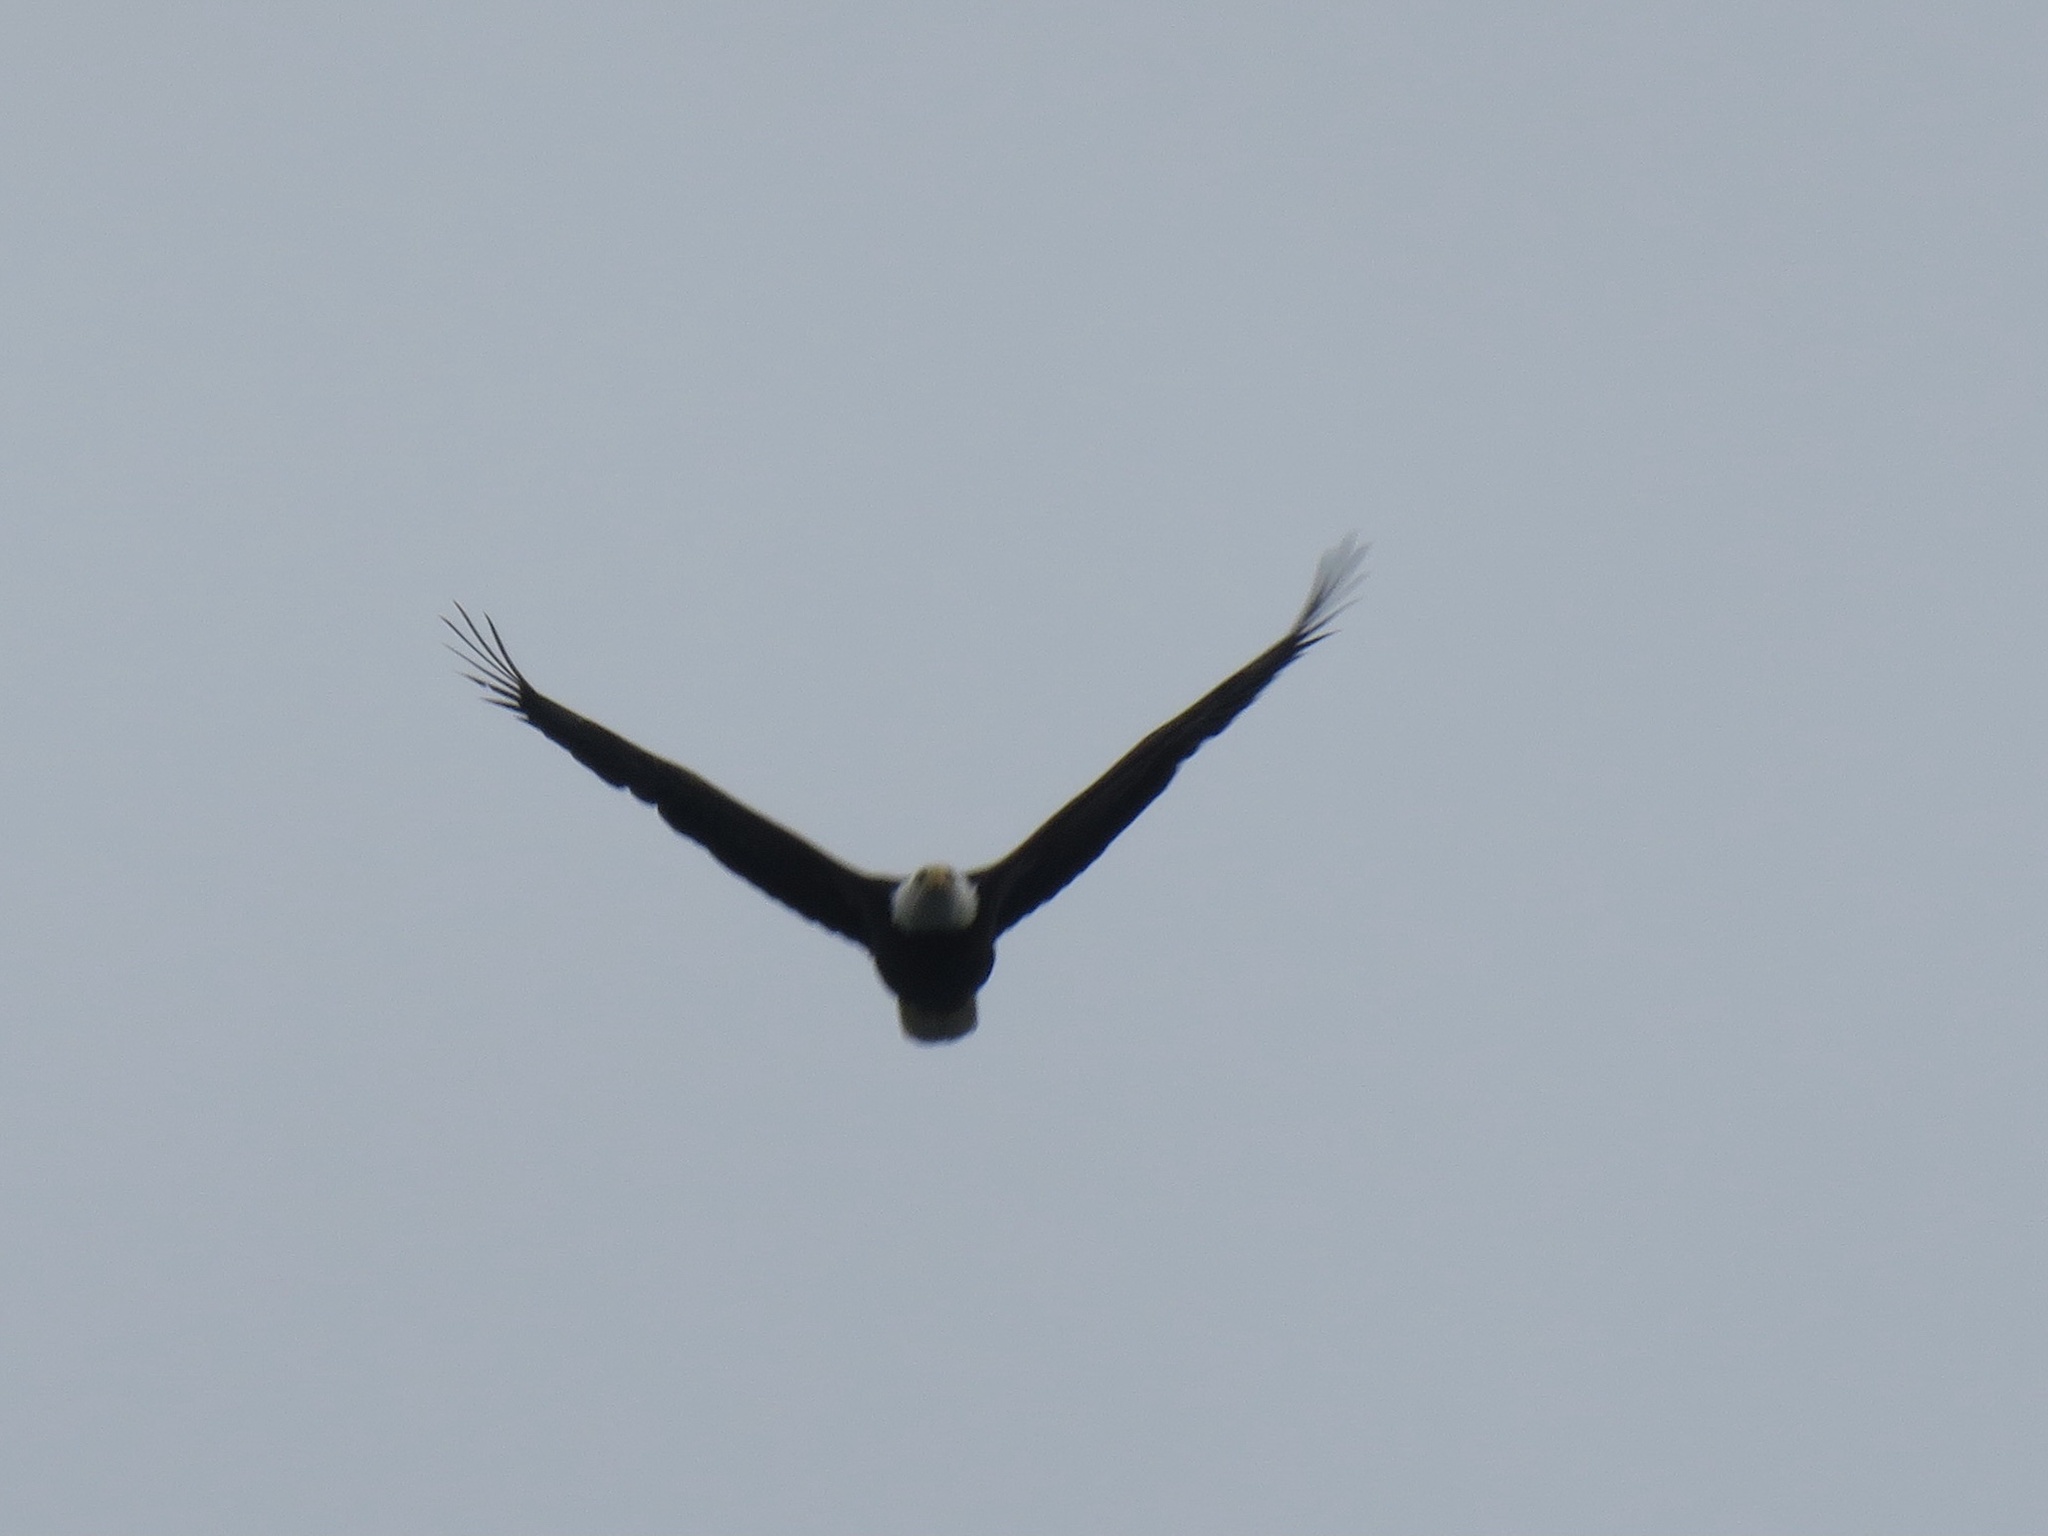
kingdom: Animalia
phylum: Chordata
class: Aves
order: Accipitriformes
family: Accipitridae
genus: Haliaeetus
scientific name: Haliaeetus leucocephalus
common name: Bald eagle
